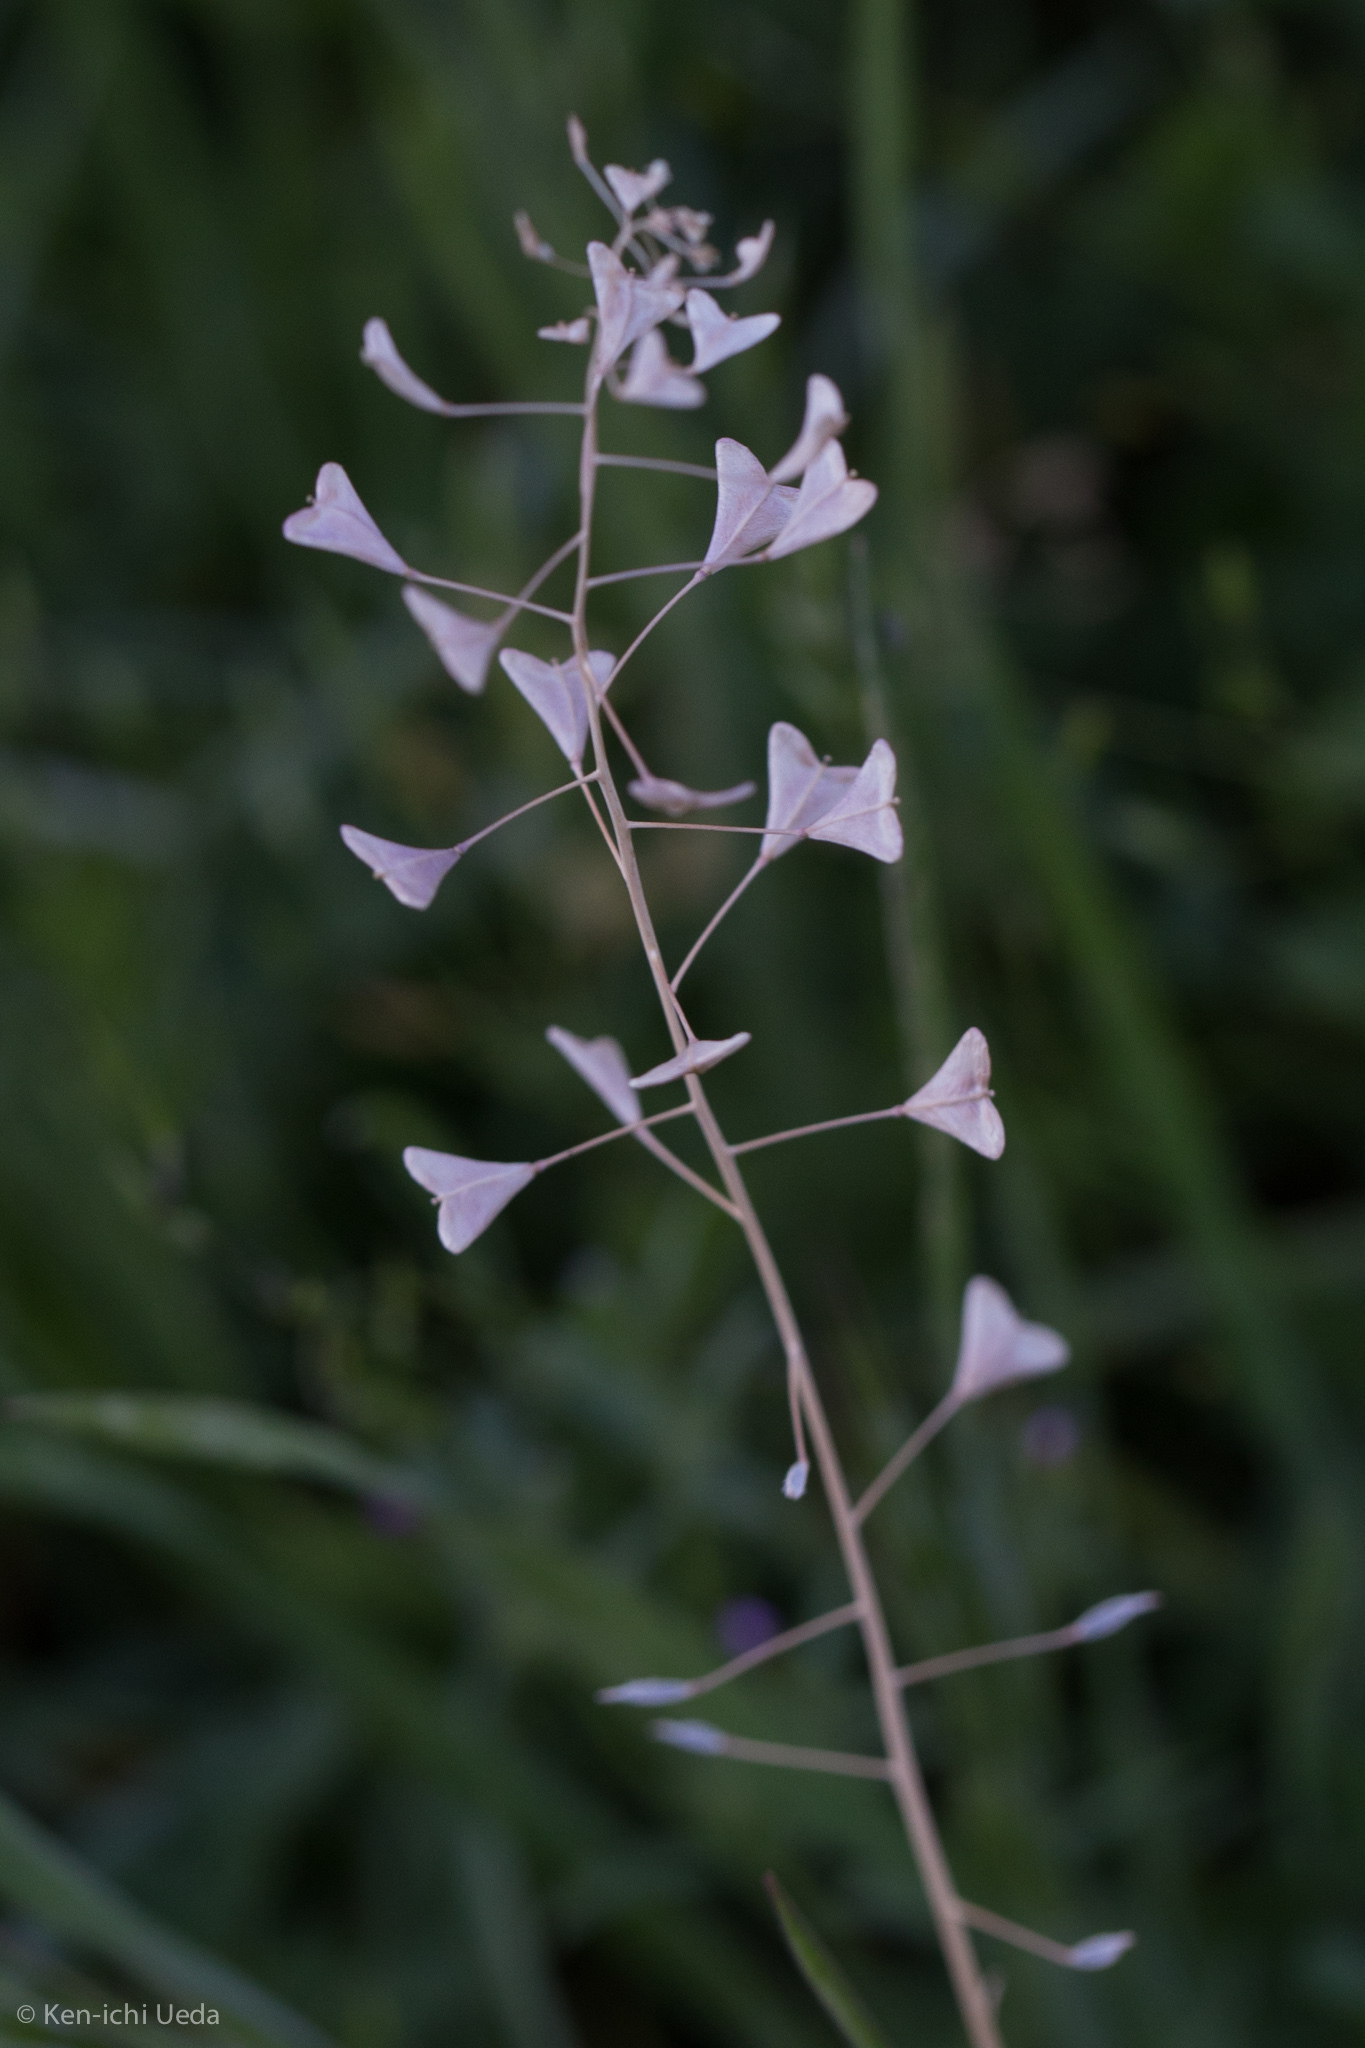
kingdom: Plantae
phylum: Tracheophyta
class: Magnoliopsida
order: Brassicales
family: Brassicaceae
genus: Capsella
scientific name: Capsella bursa-pastoris
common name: Shepherd's purse
